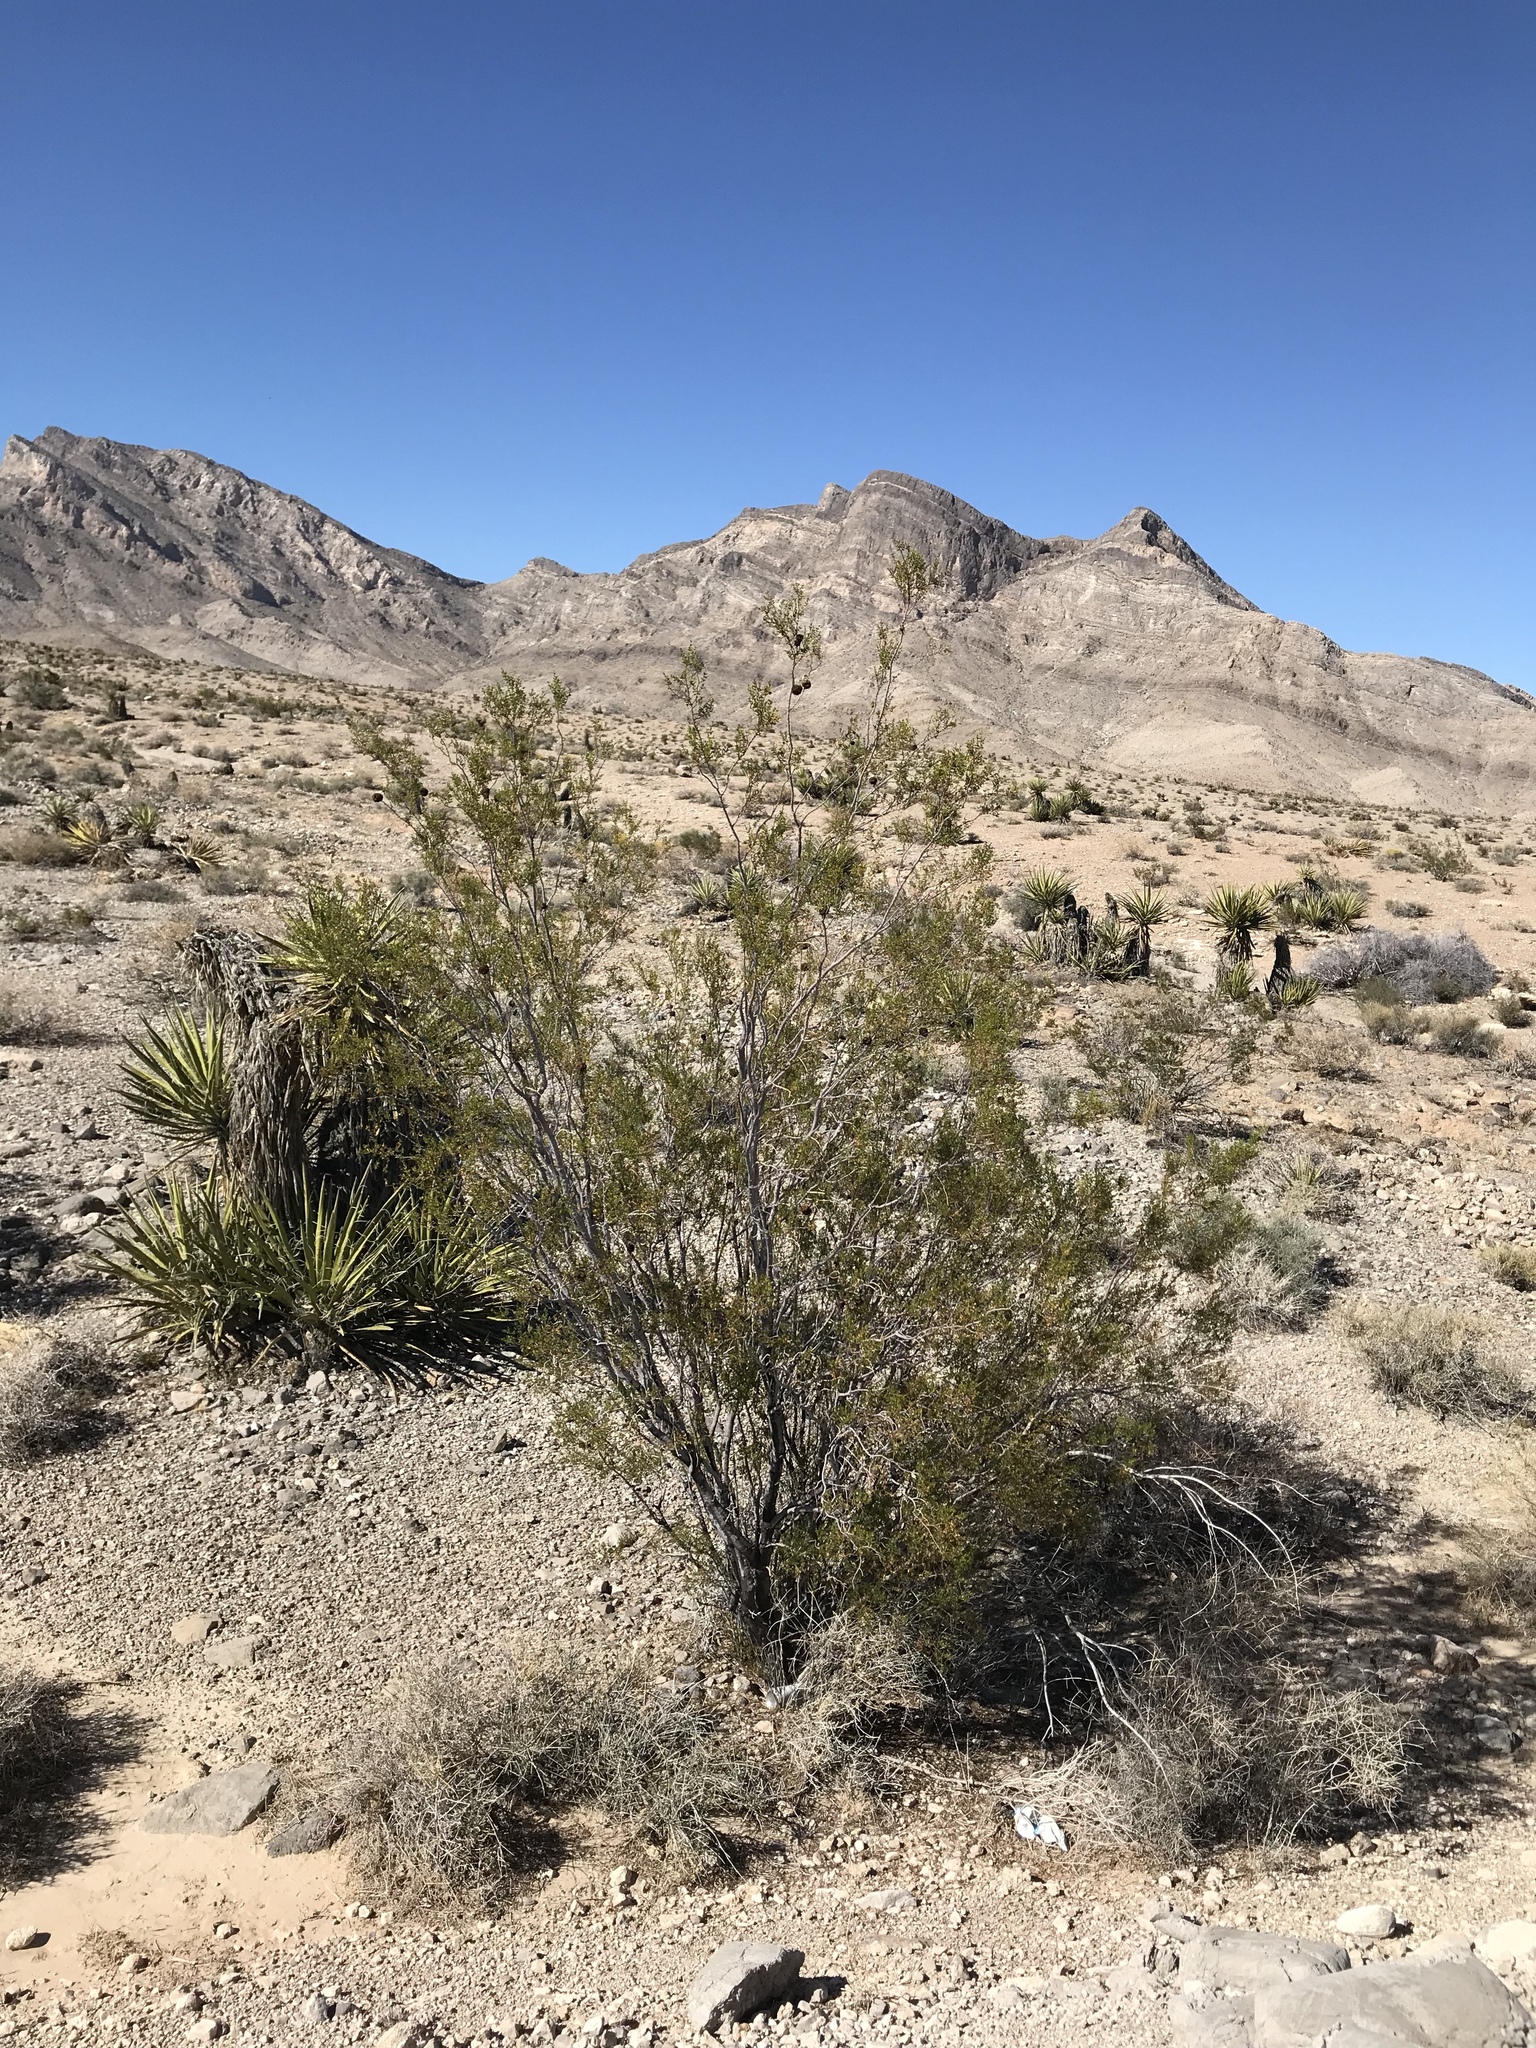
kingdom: Plantae
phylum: Tracheophyta
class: Magnoliopsida
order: Zygophyllales
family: Zygophyllaceae
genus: Larrea
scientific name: Larrea tridentata
